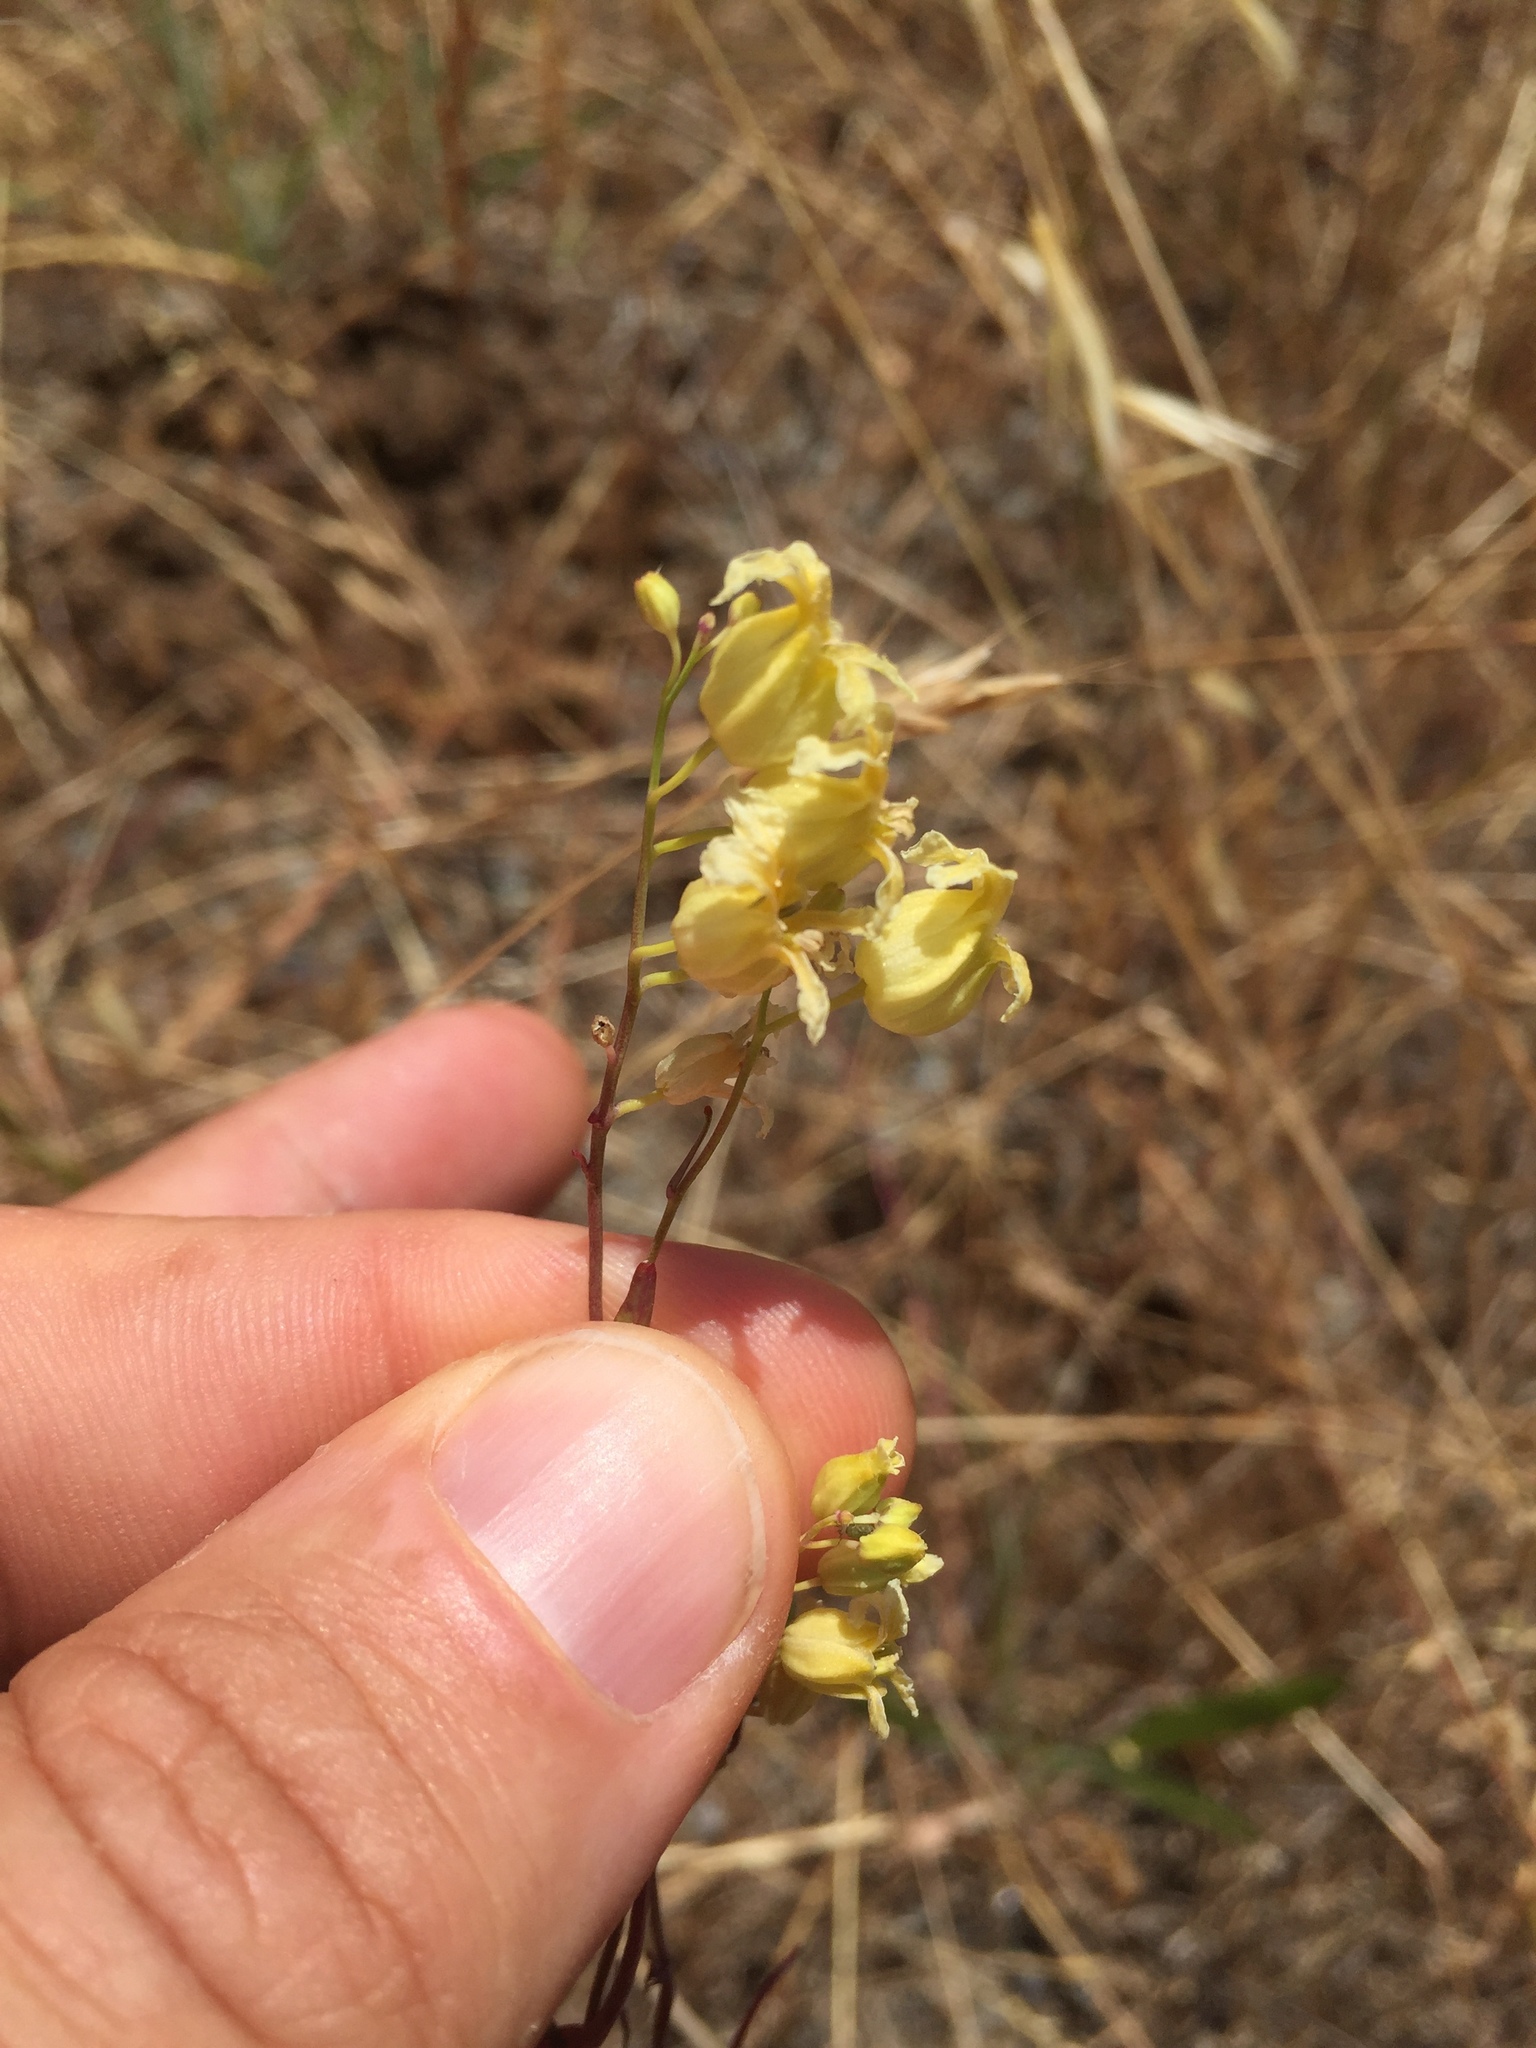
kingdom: Plantae
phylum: Tracheophyta
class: Magnoliopsida
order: Brassicales
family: Brassicaceae
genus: Streptanthus
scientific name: Streptanthus glandulosus
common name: Jewel-flower
